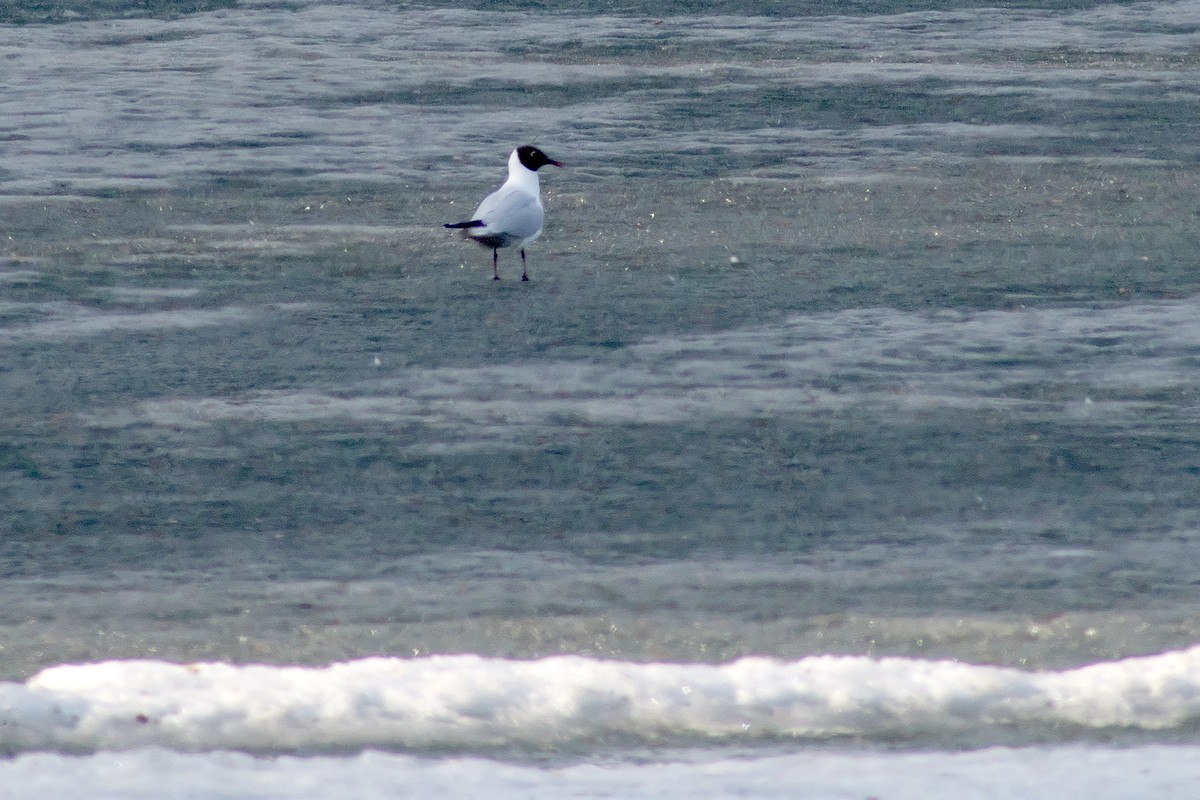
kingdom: Animalia
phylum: Chordata
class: Aves
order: Charadriiformes
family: Laridae
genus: Chroicocephalus
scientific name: Chroicocephalus ridibundus
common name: Black-headed gull
